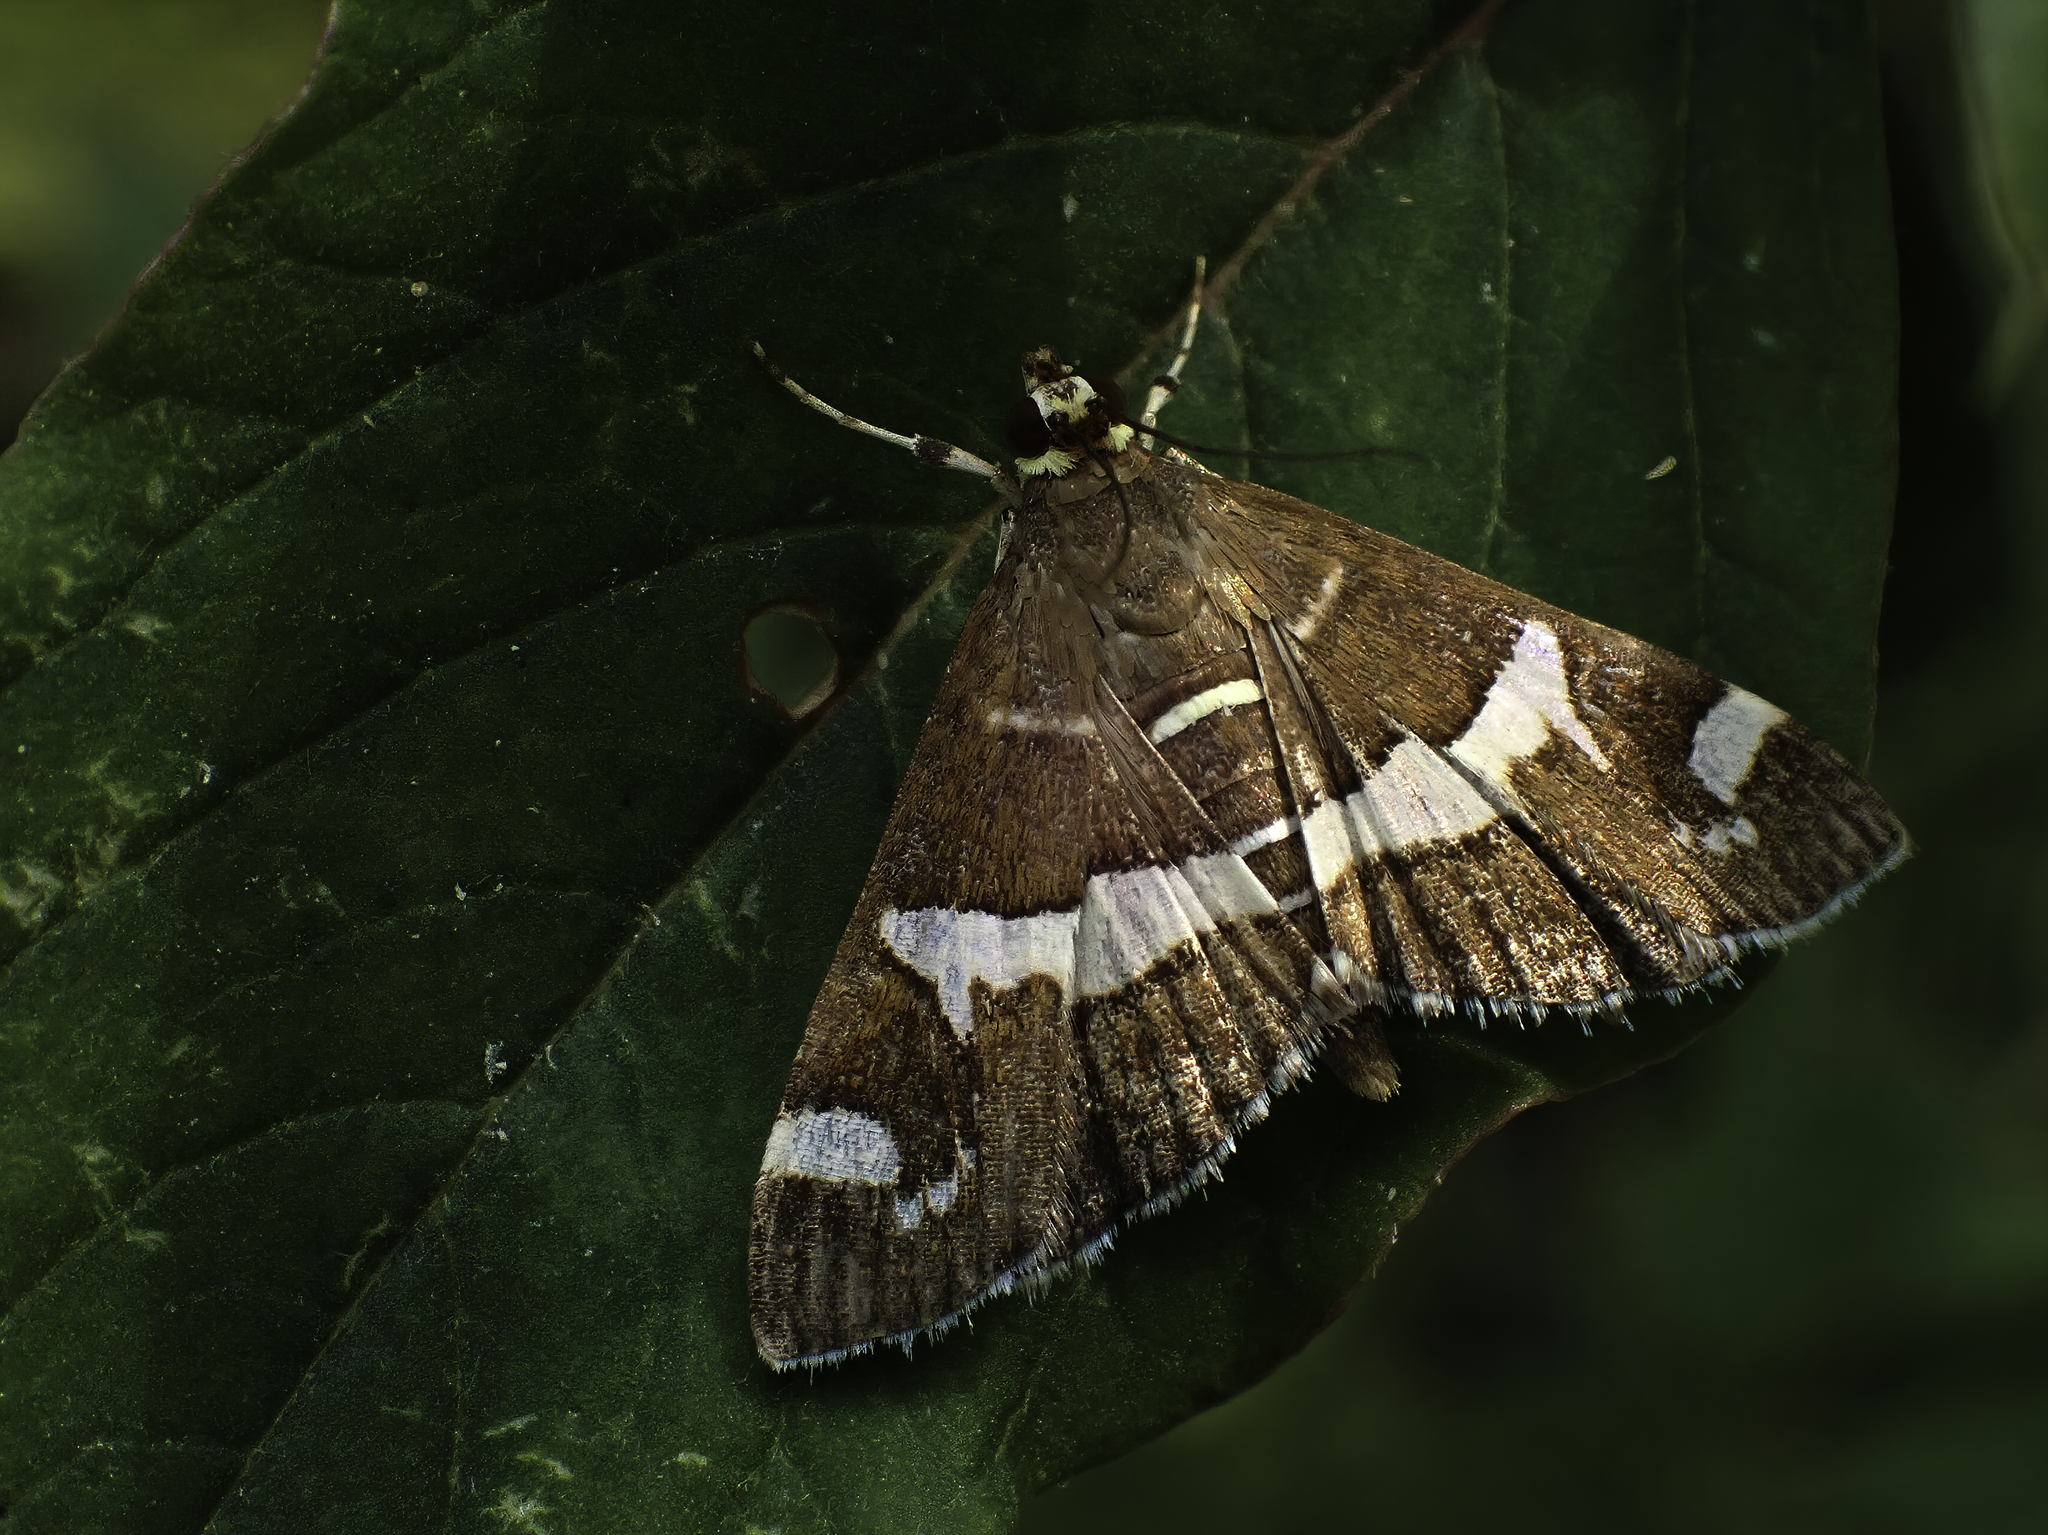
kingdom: Animalia
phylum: Arthropoda
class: Insecta
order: Lepidoptera
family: Crambidae
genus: Spoladea
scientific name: Spoladea recurvalis
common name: Beet webworm moth
